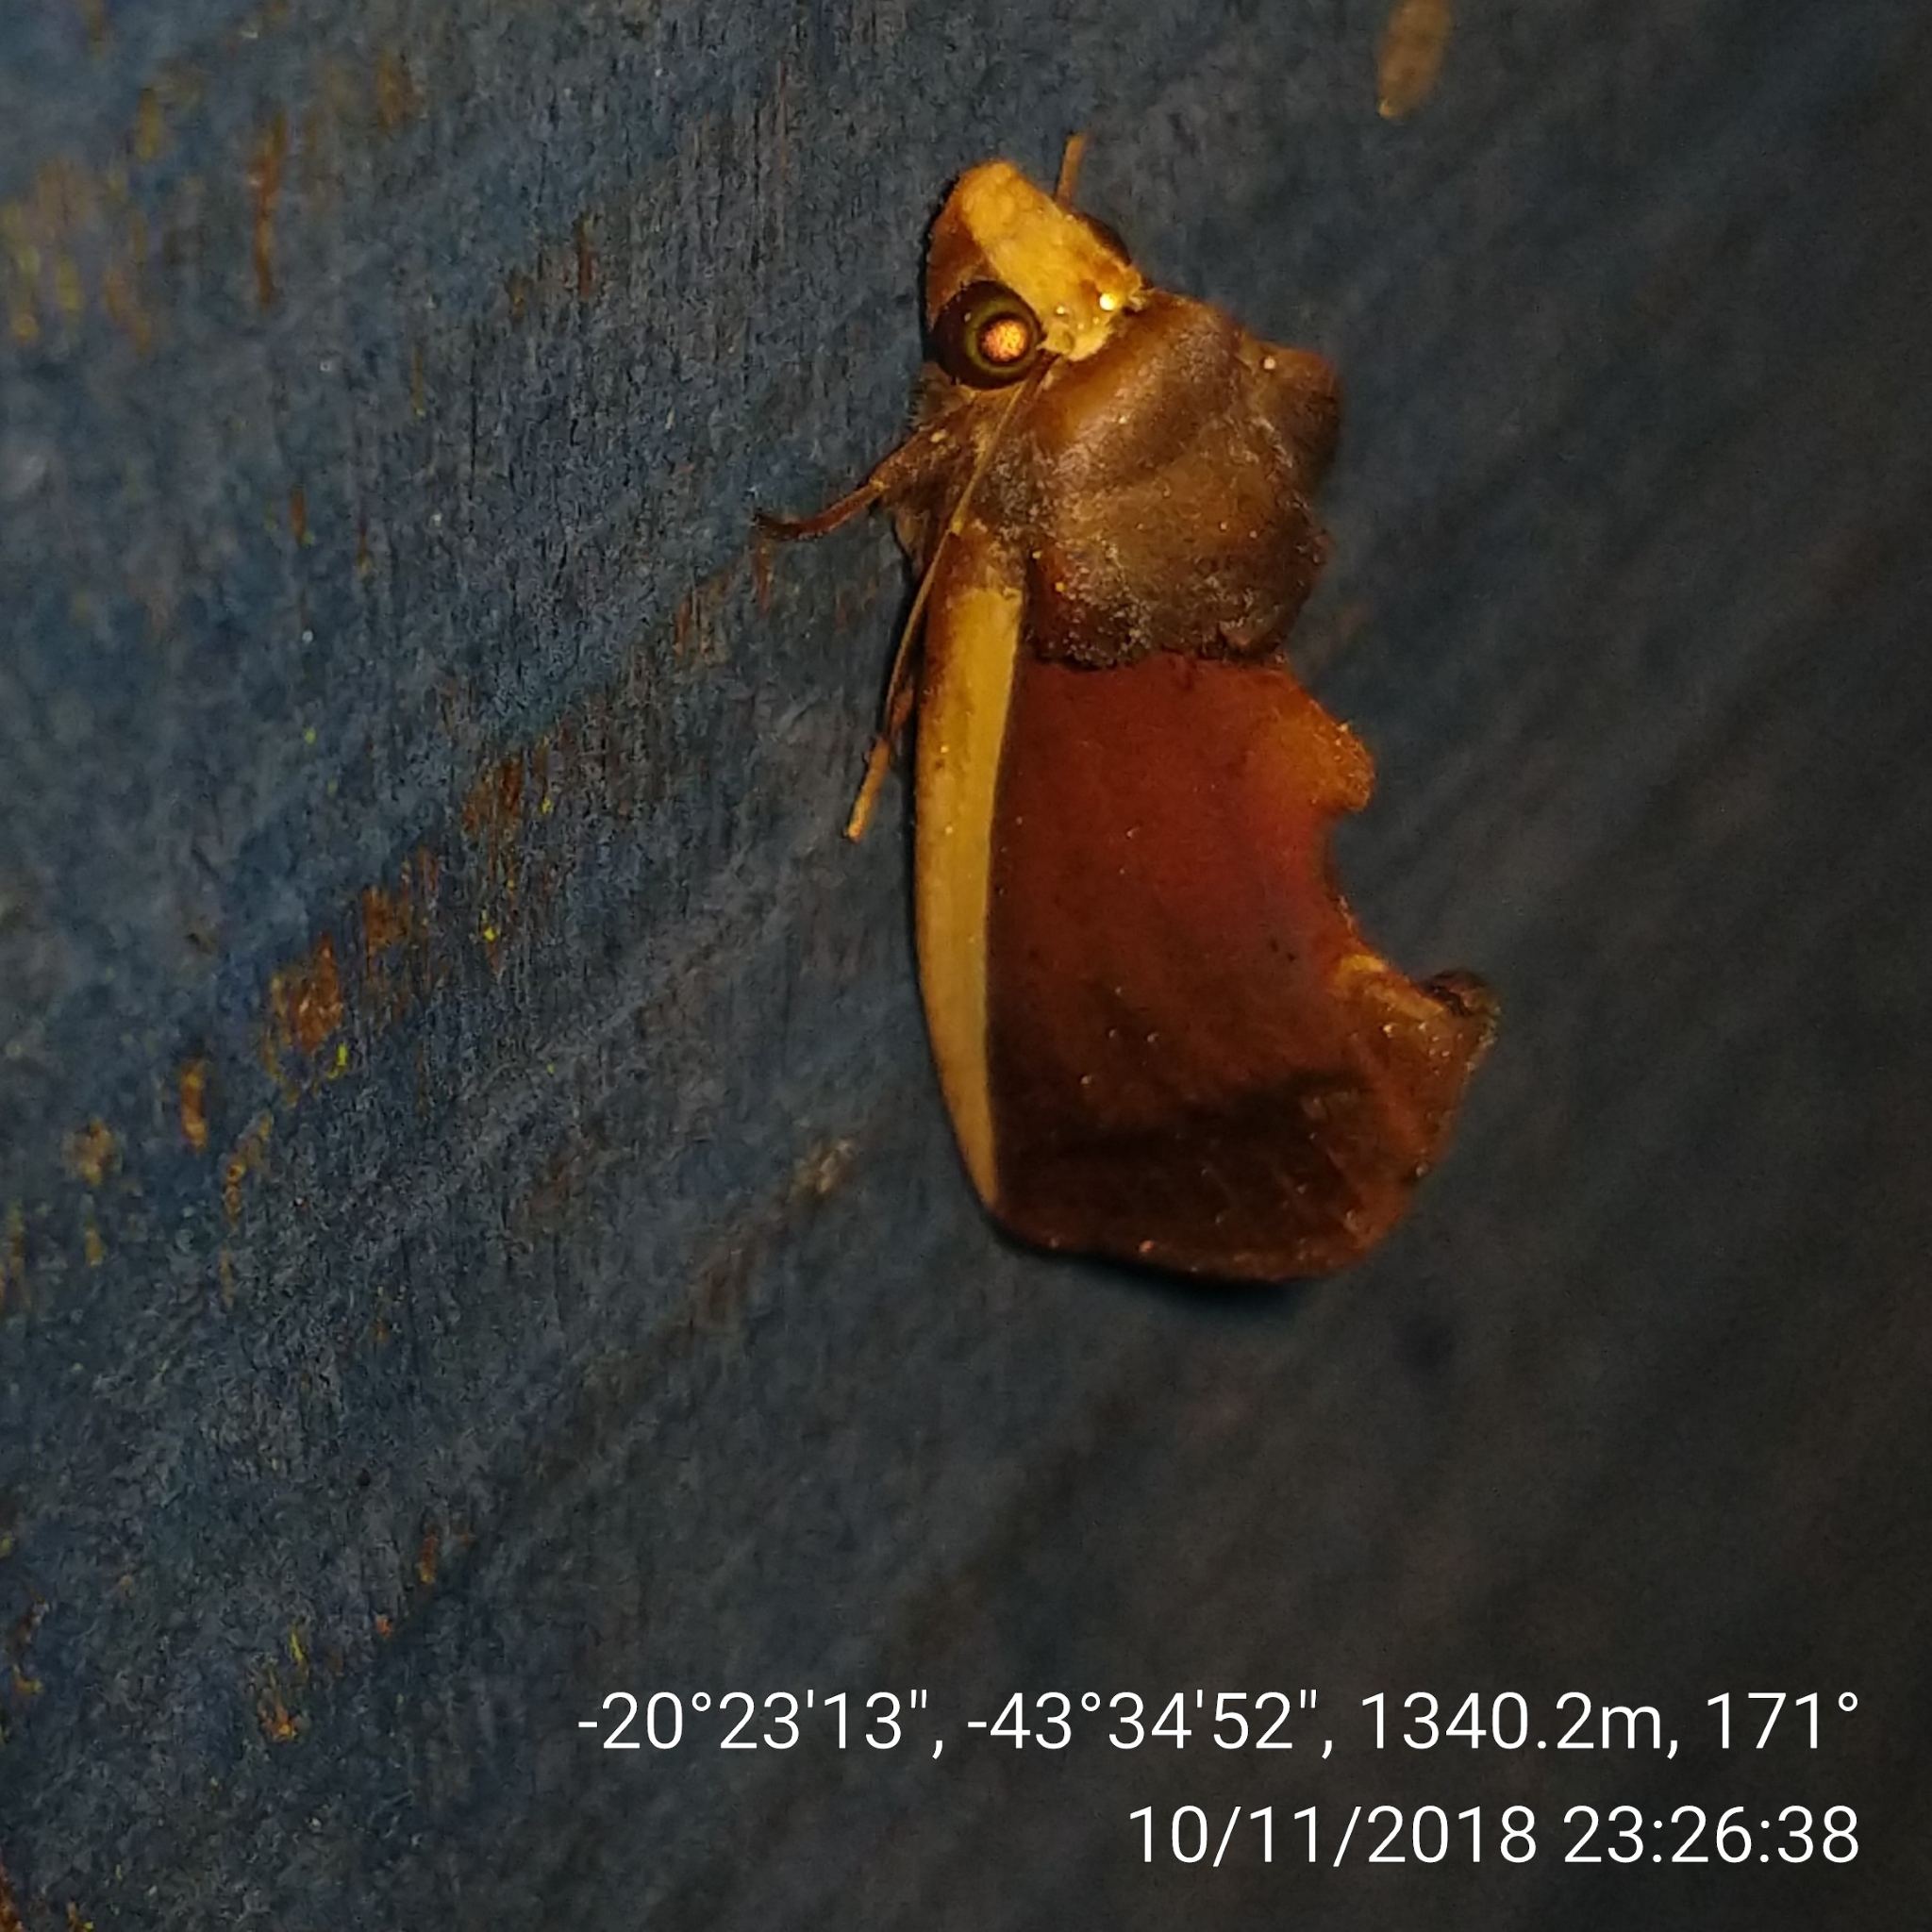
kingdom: Animalia
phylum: Arthropoda
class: Insecta
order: Lepidoptera
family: Erebidae
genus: Gonodonta
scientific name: Gonodonta pyrgo
